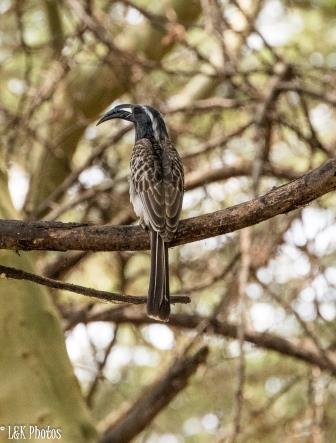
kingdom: Animalia
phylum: Chordata
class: Aves
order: Bucerotiformes
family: Bucerotidae
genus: Lophoceros
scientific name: Lophoceros nasutus
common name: African grey hornbill
